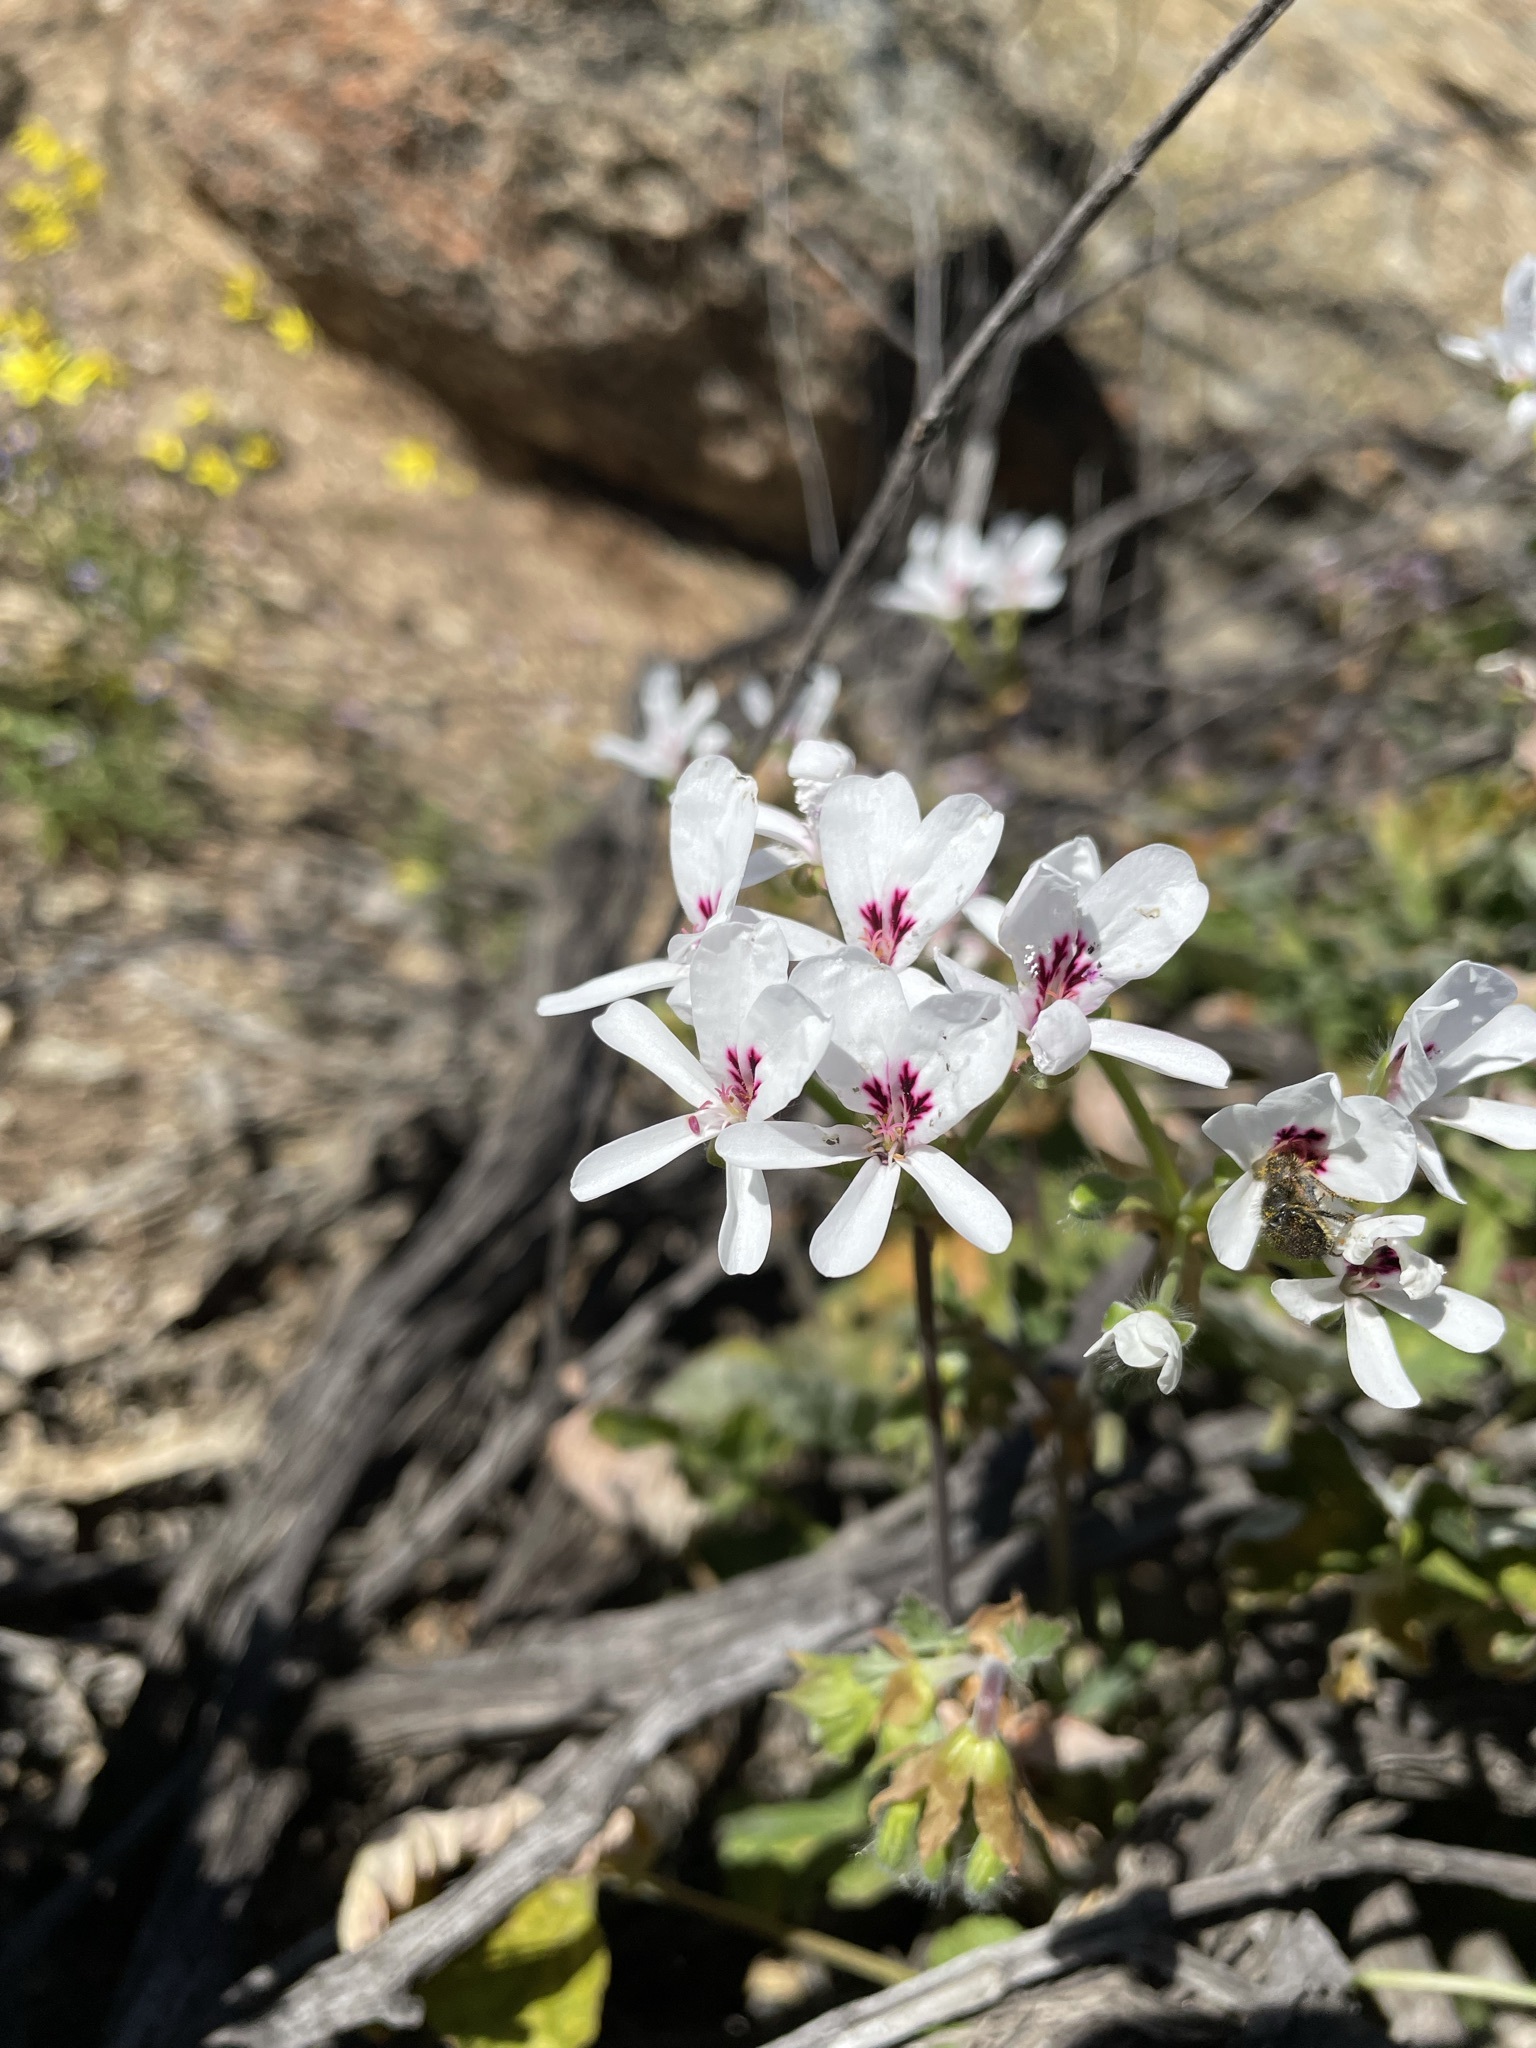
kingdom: Plantae
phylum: Tracheophyta
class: Magnoliopsida
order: Geraniales
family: Geraniaceae
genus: Pelargonium
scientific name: Pelargonium echinatum
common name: Cactus geranium
